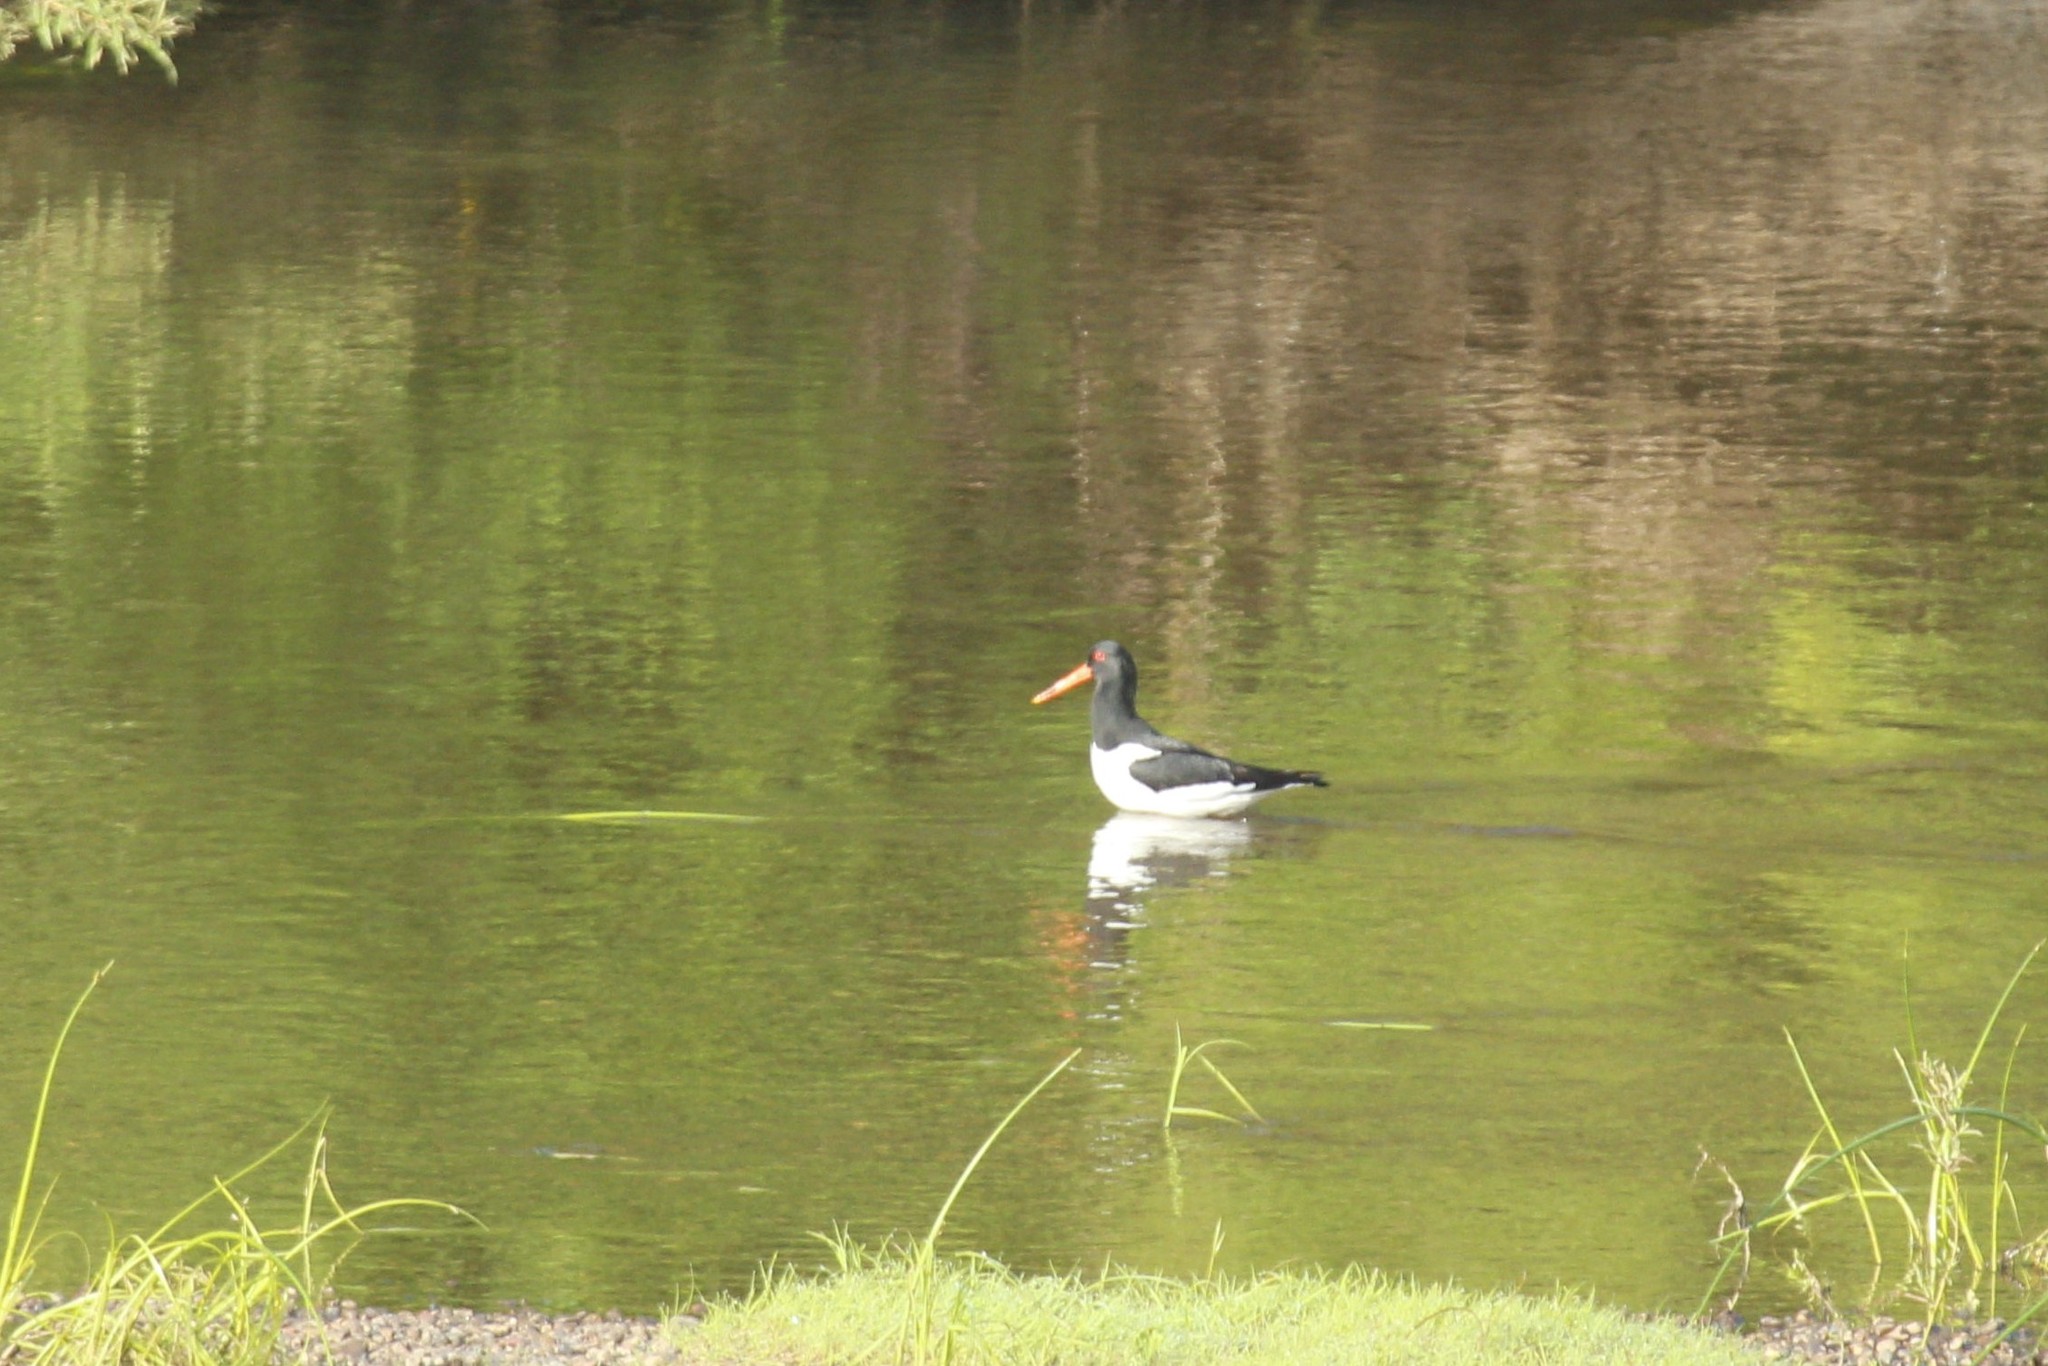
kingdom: Animalia
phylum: Chordata
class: Aves
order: Charadriiformes
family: Haematopodidae
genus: Haematopus
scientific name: Haematopus ostralegus
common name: Eurasian oystercatcher
